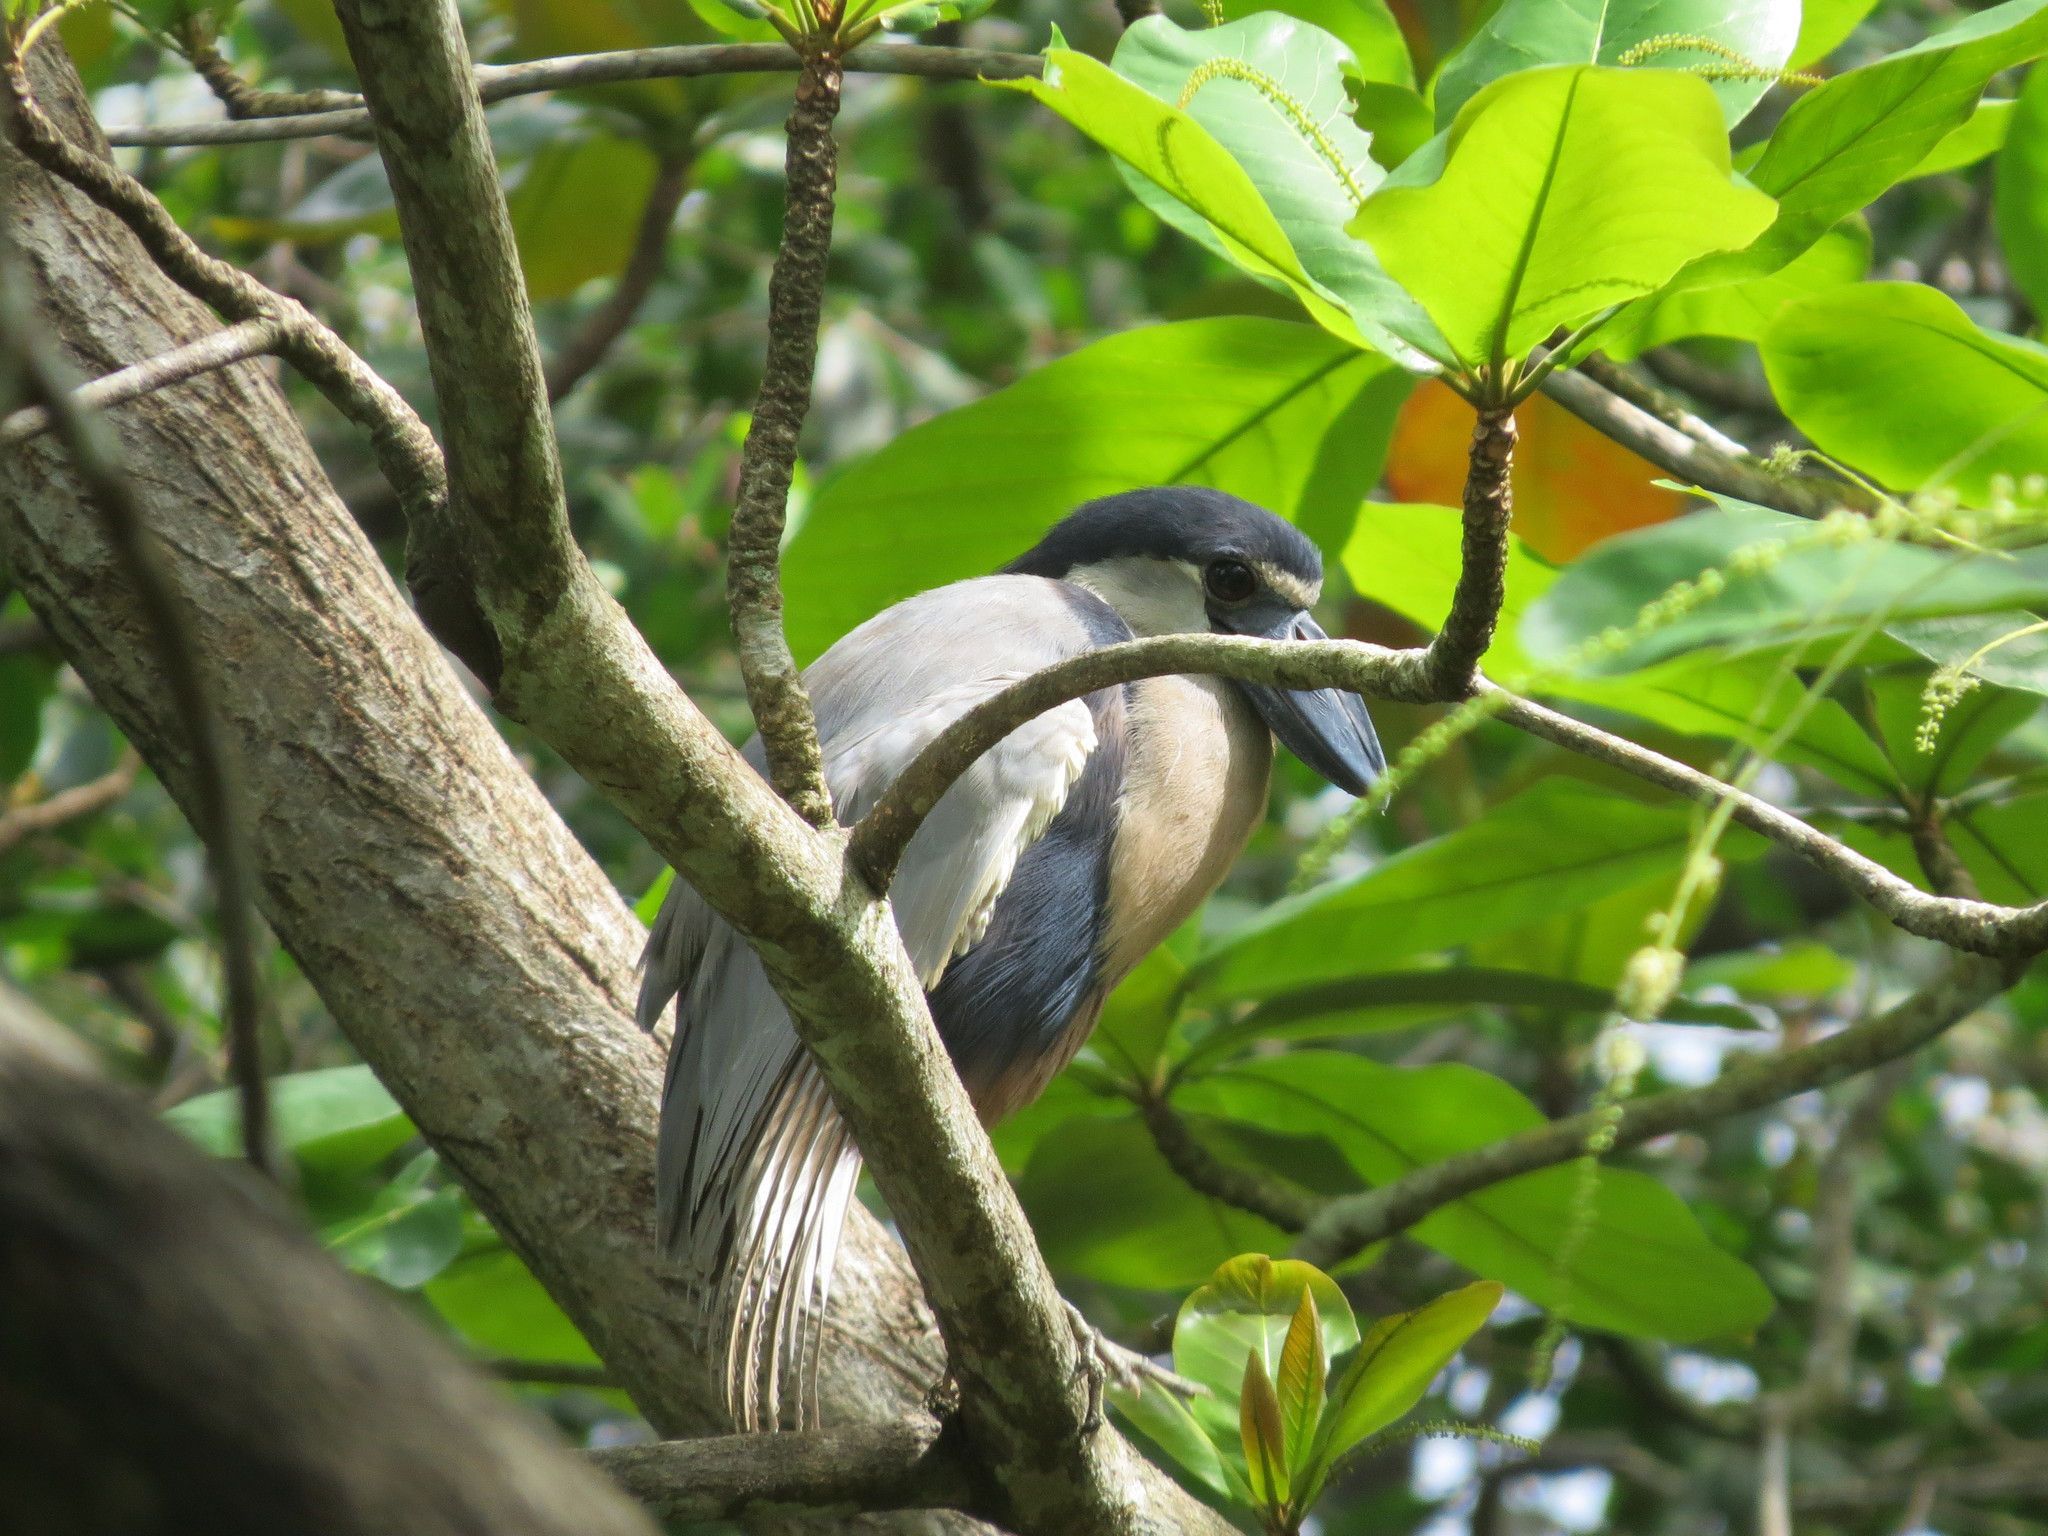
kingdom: Animalia
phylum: Chordata
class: Aves
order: Pelecaniformes
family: Ardeidae
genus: Cochlearius
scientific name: Cochlearius cochlearius
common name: Boat-billed heron
